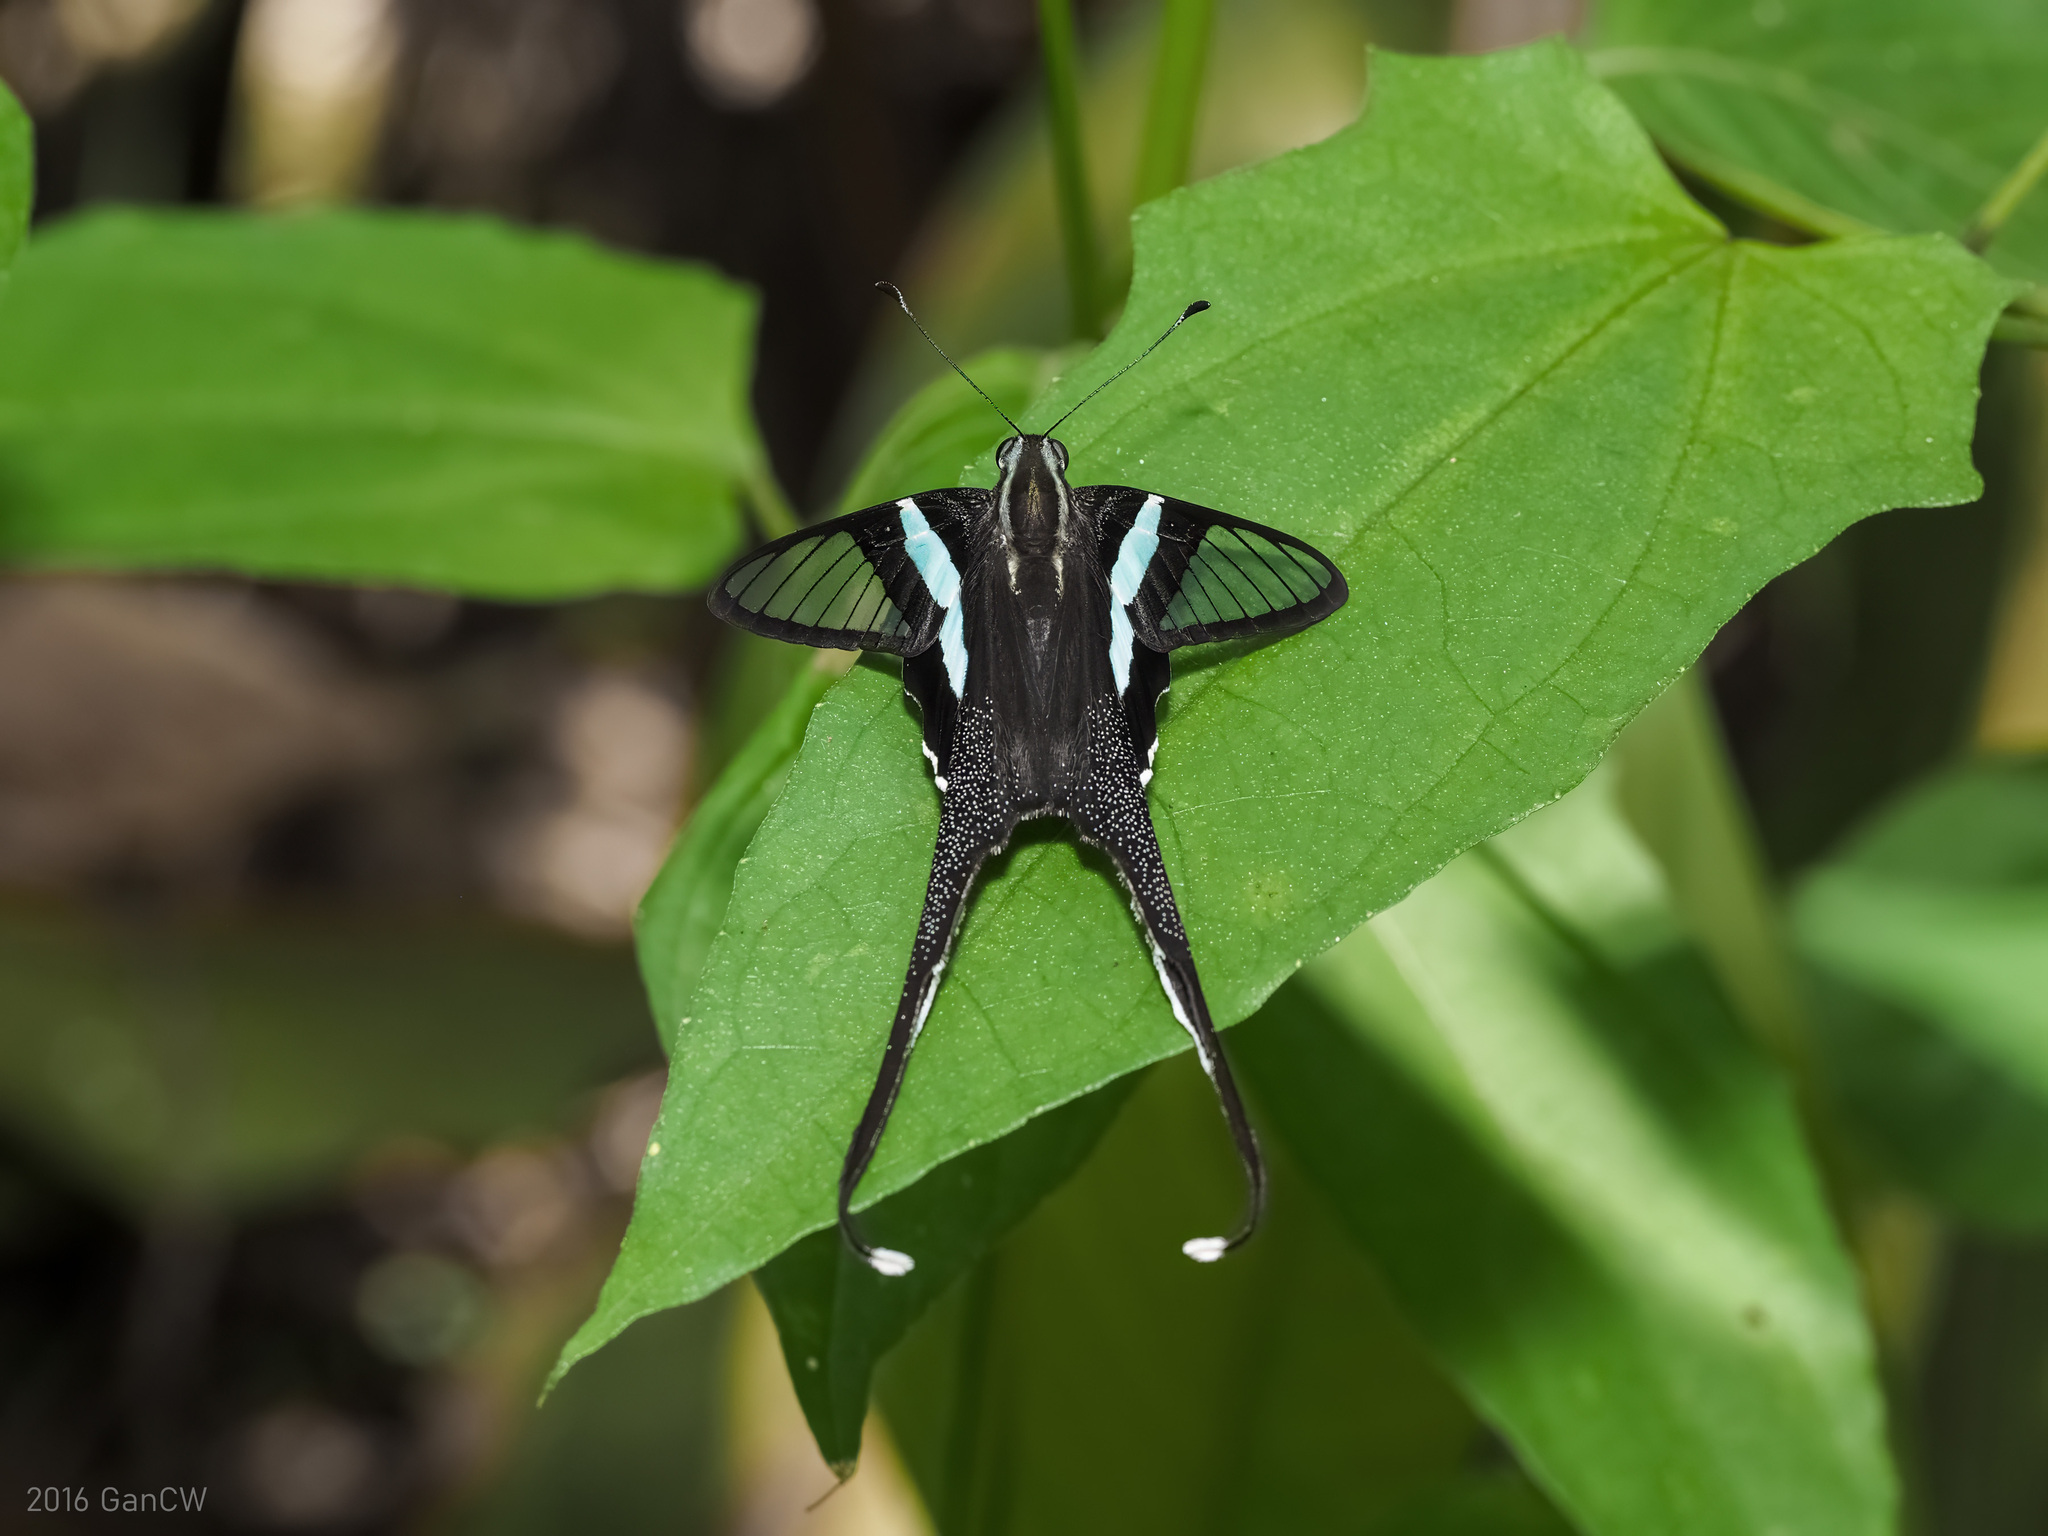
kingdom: Animalia
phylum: Arthropoda
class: Insecta
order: Lepidoptera
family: Papilionidae
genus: Lamproptera
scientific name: Lamproptera meges
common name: Green dragontail
